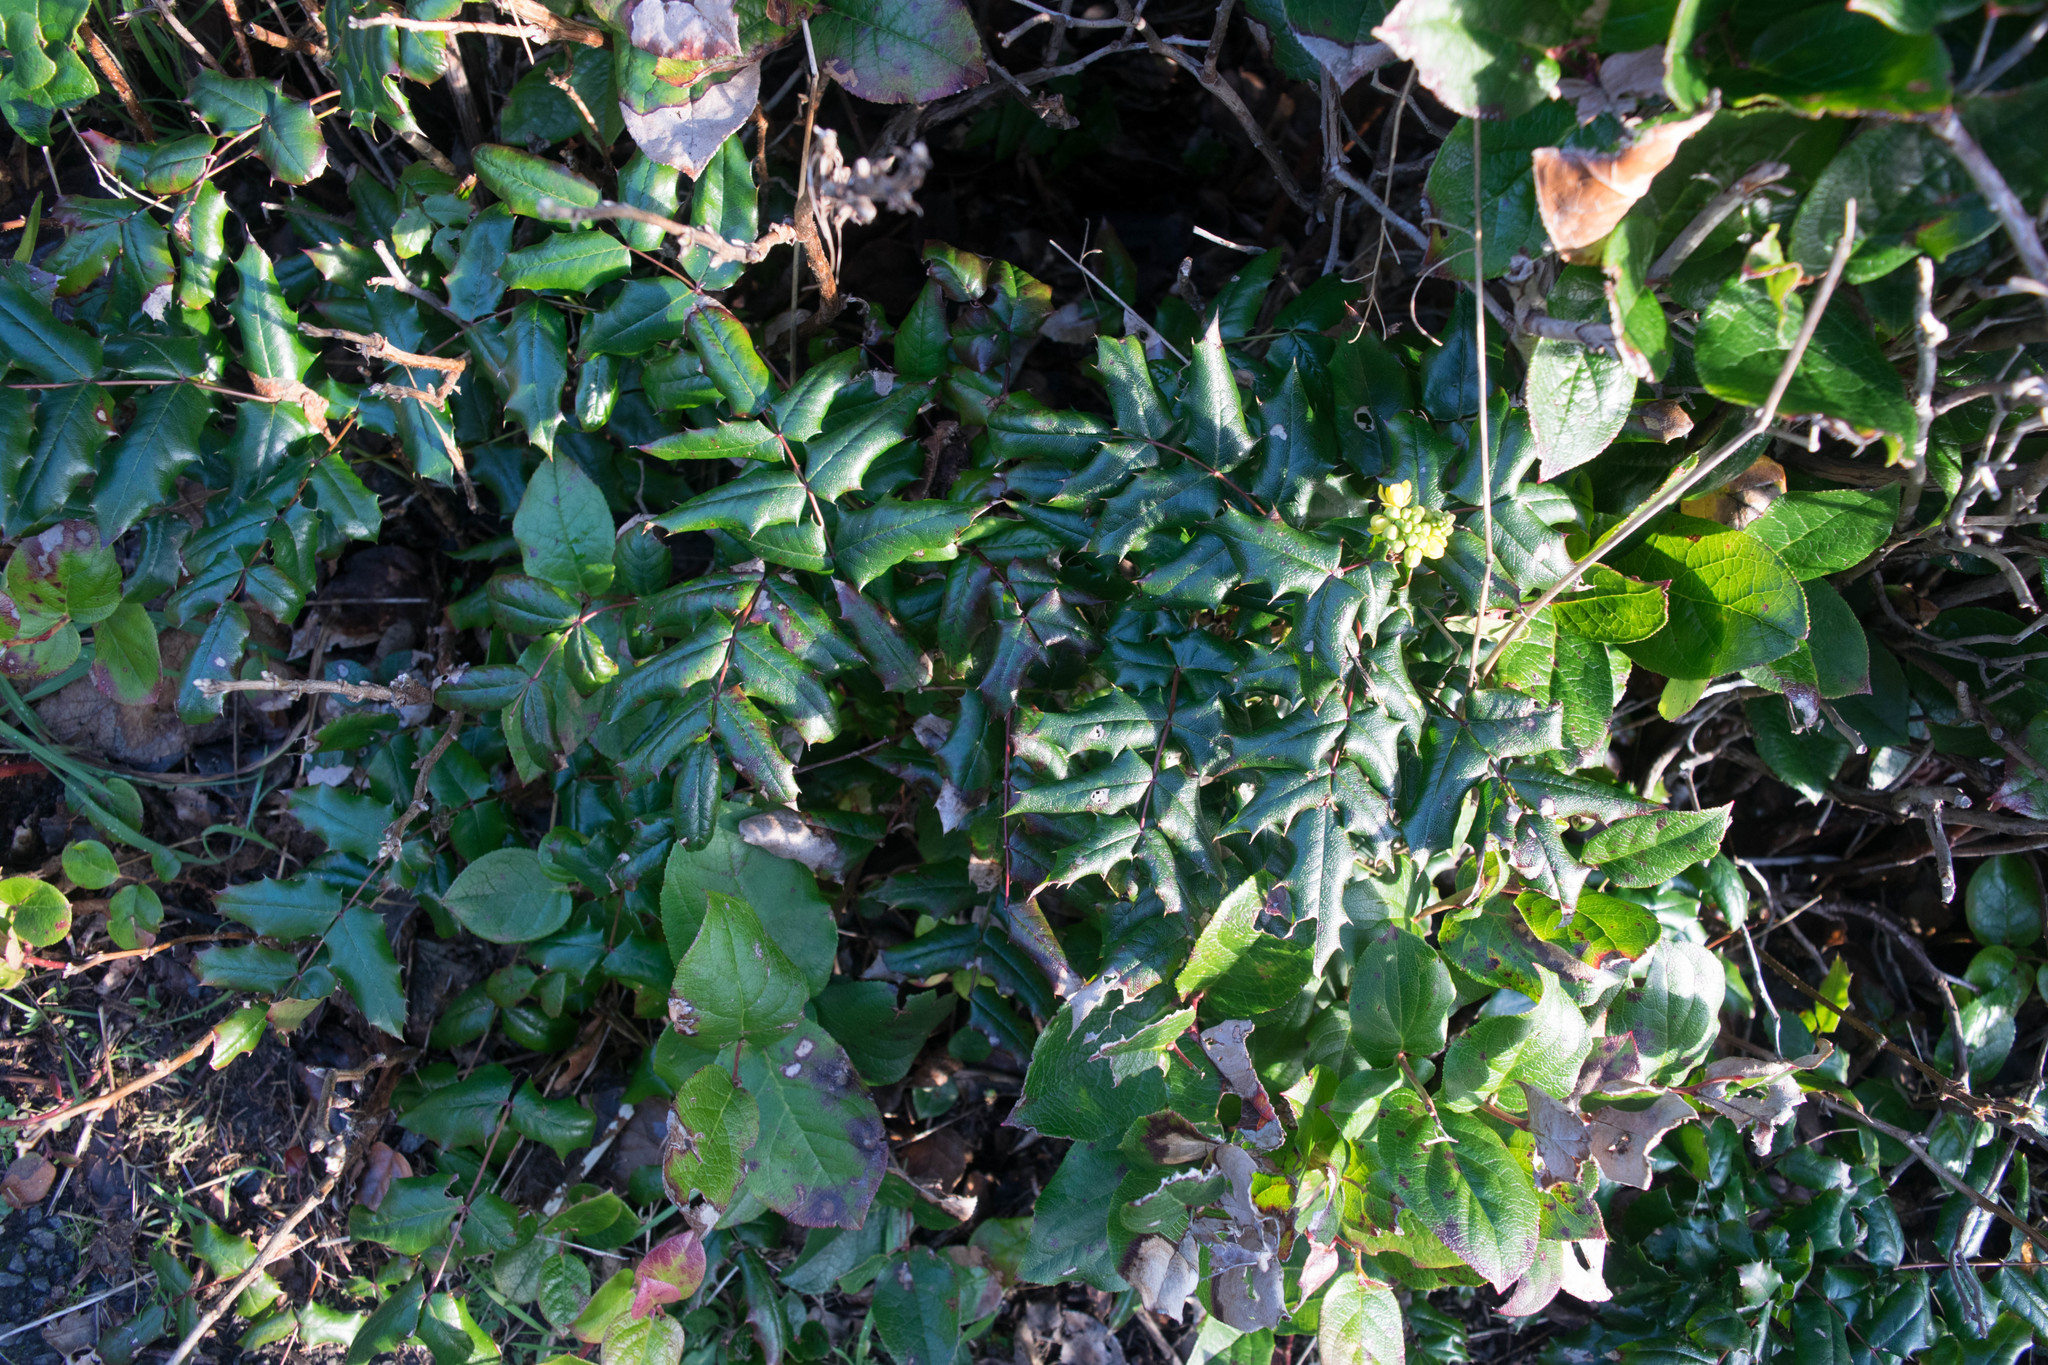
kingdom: Plantae
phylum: Tracheophyta
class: Magnoliopsida
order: Ranunculales
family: Berberidaceae
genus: Mahonia
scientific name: Mahonia aquifolium
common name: Oregon-grape
